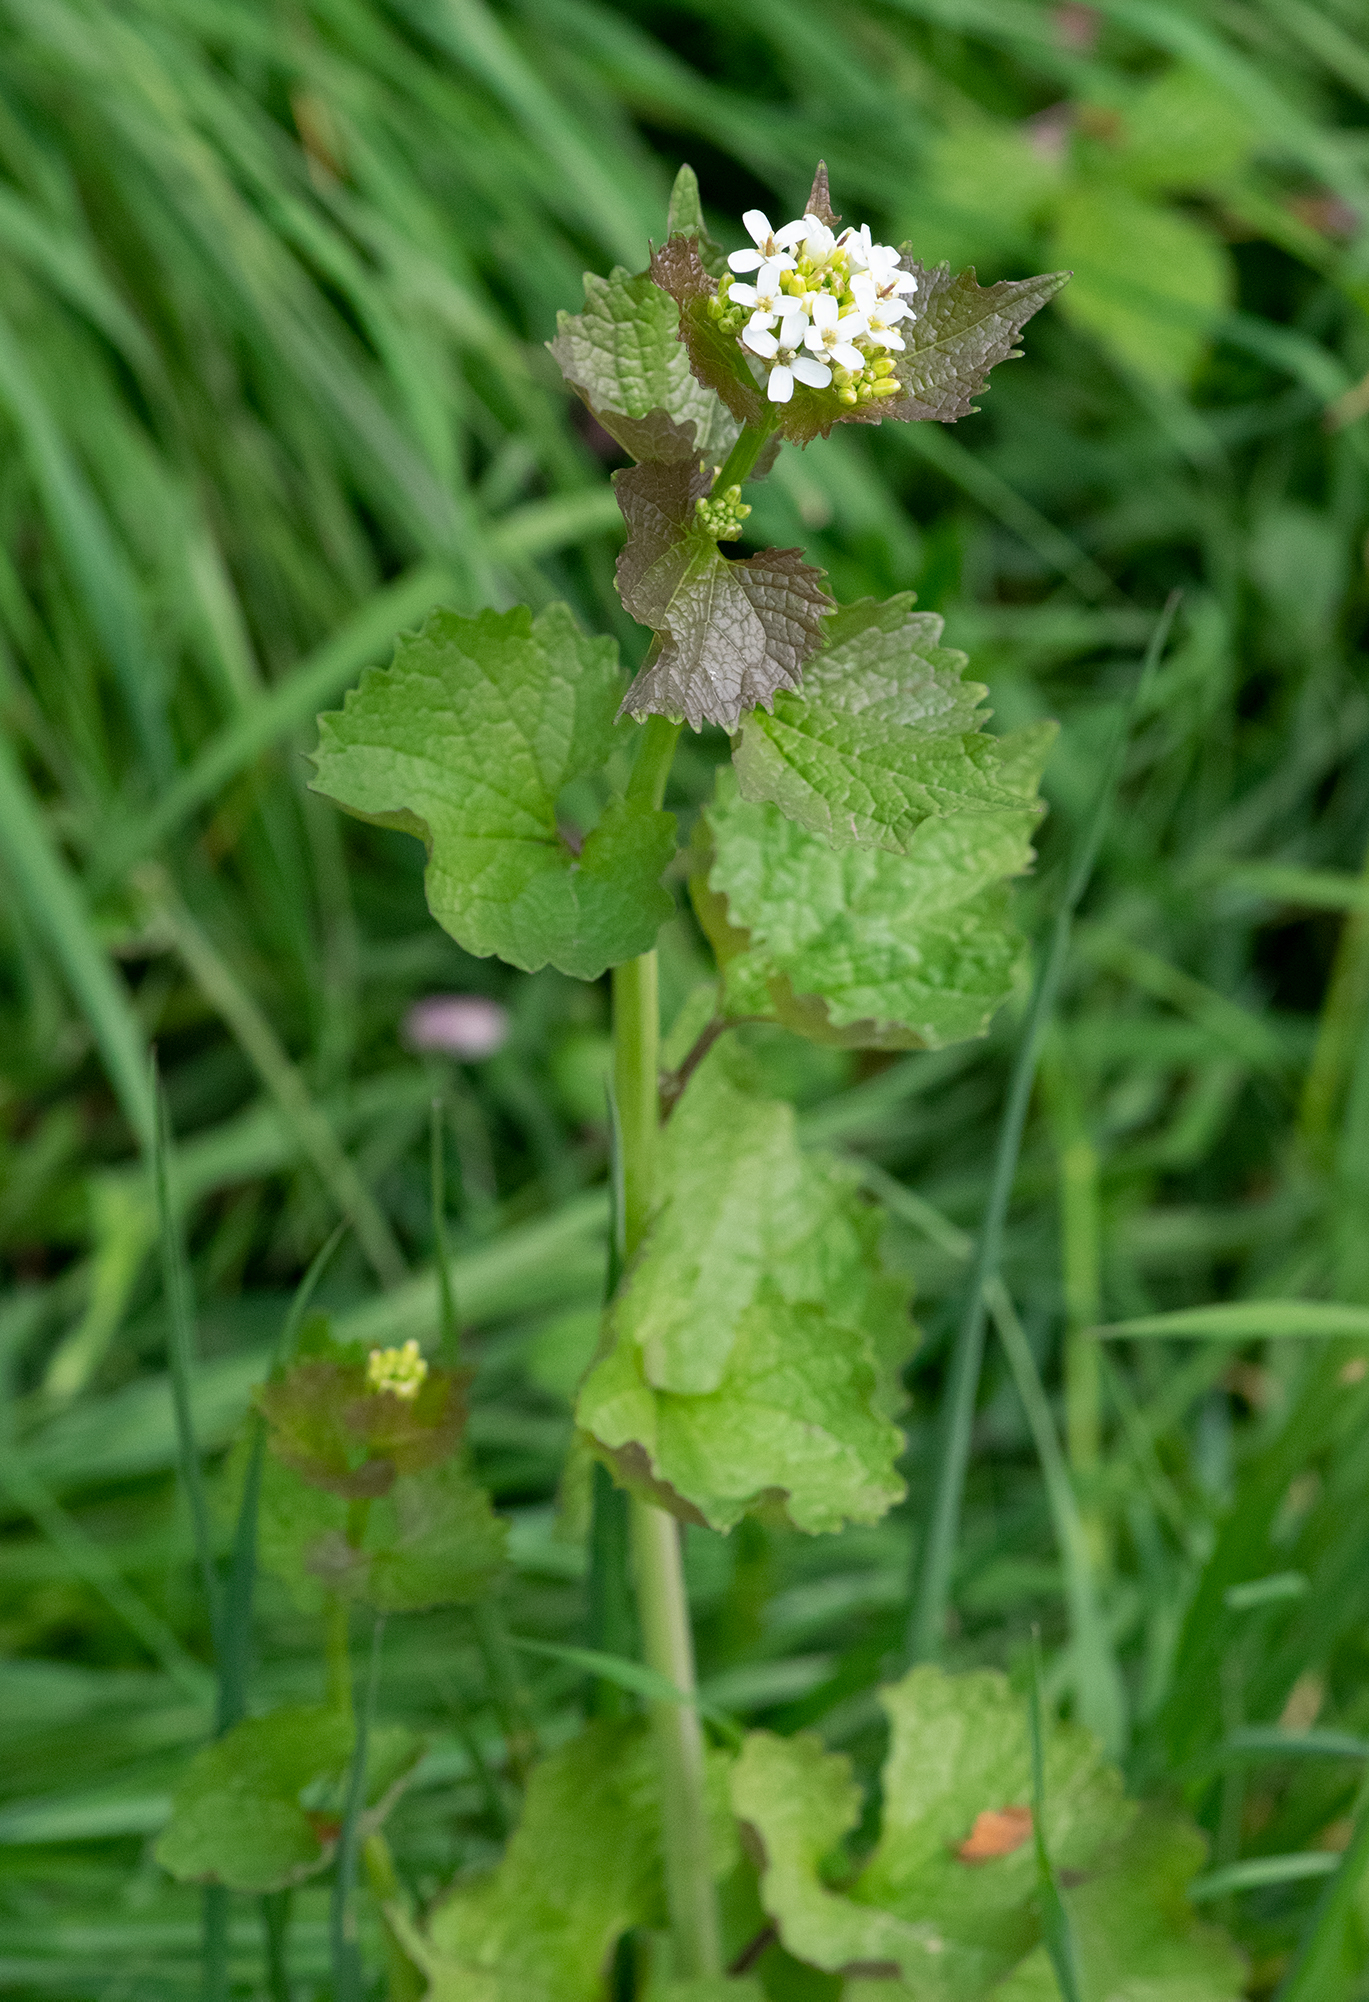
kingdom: Plantae
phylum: Tracheophyta
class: Magnoliopsida
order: Brassicales
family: Brassicaceae
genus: Alliaria
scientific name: Alliaria petiolata
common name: Garlic mustard
